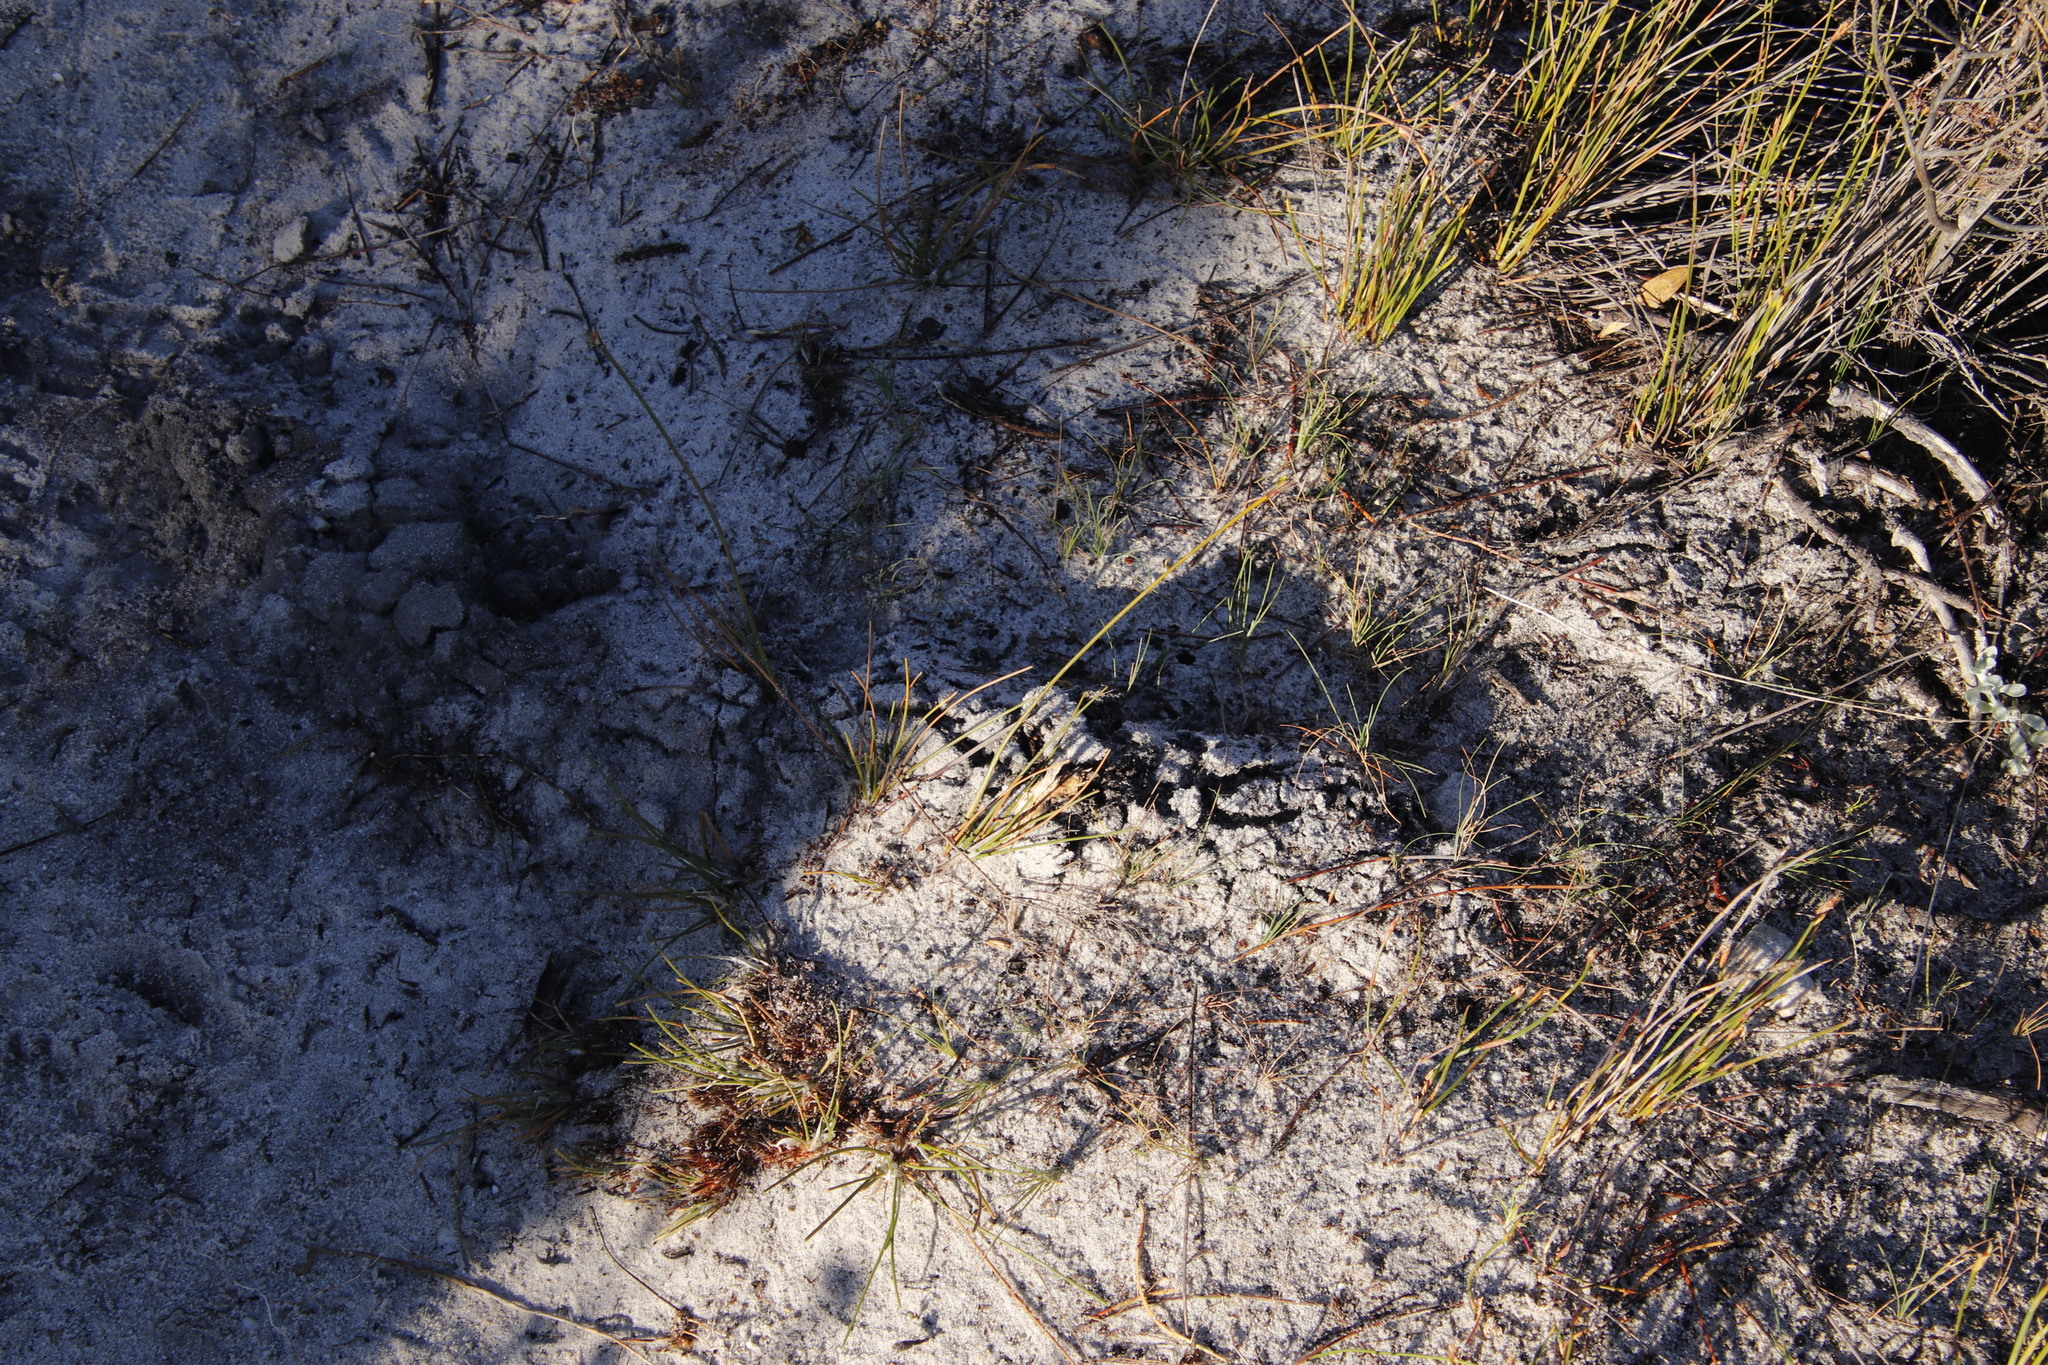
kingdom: Animalia
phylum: Chordata
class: Mammalia
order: Afrosoricida
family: Chrysochloridae
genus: Chrysochloris
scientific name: Chrysochloris asiatica
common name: Cape golden mole
